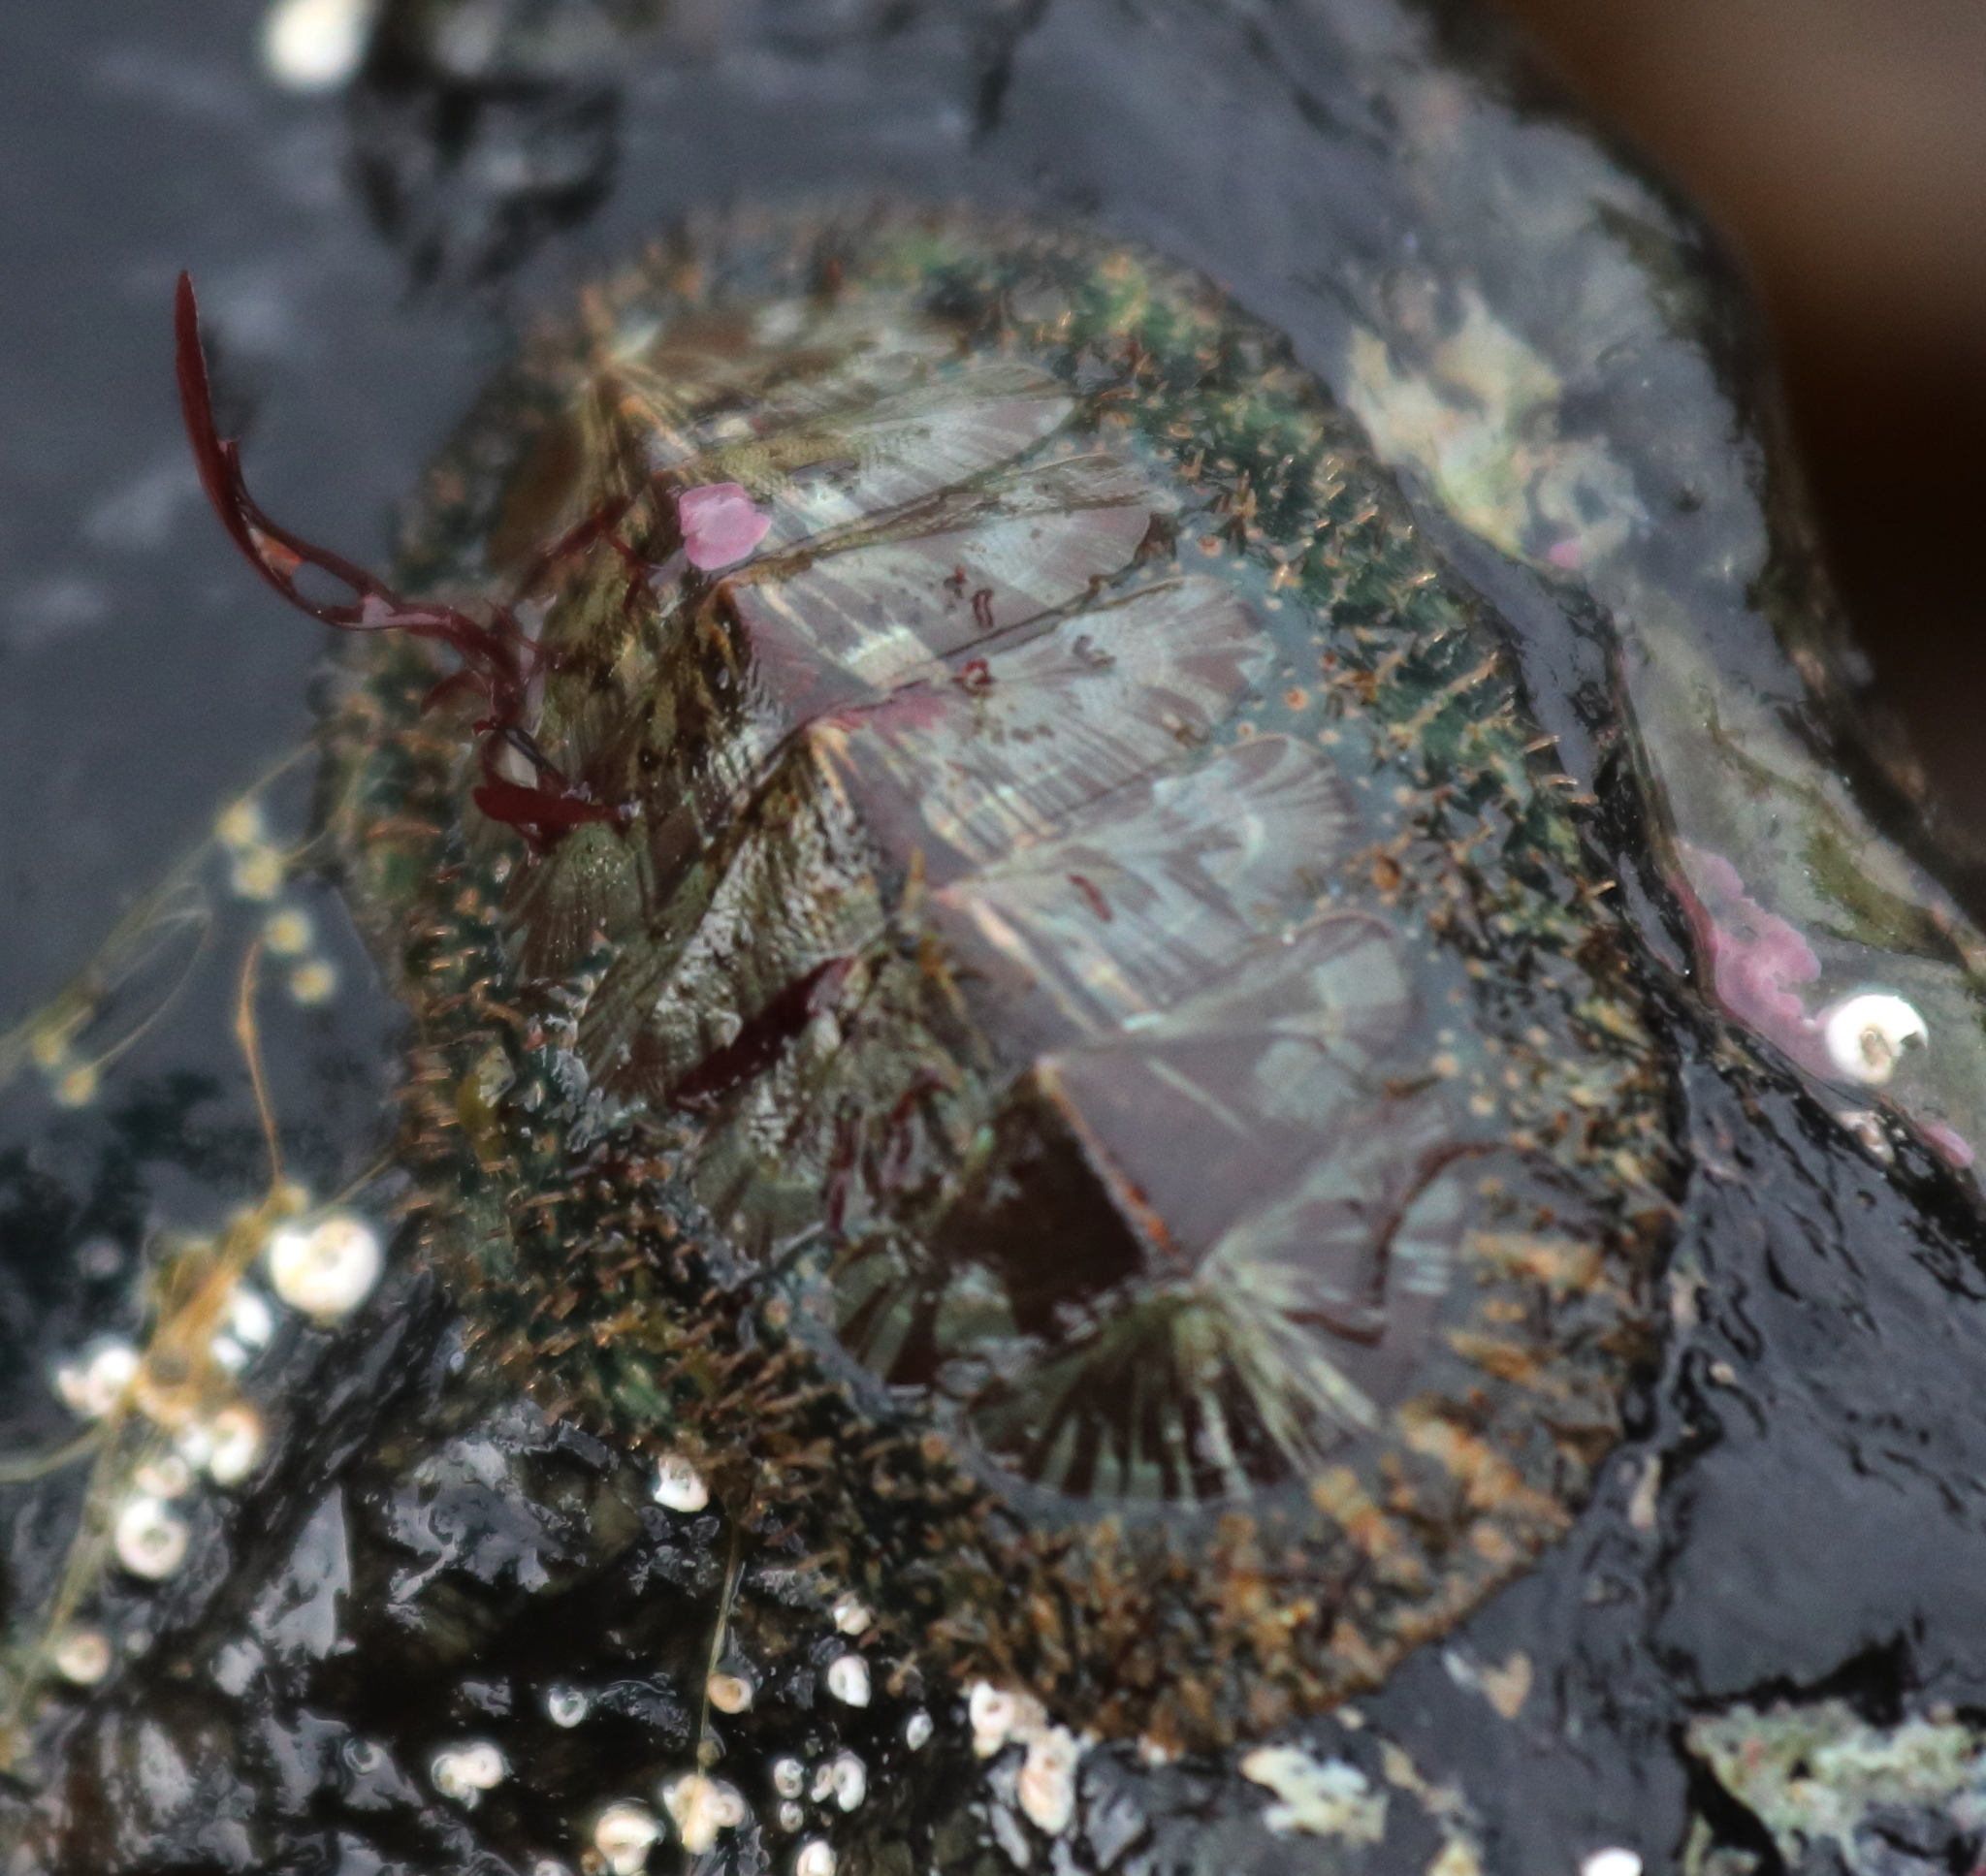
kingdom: Animalia
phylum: Mollusca
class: Polyplacophora
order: Chitonida
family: Mopaliidae
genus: Mopalia
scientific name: Mopalia lignosa
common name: Woody chiton
